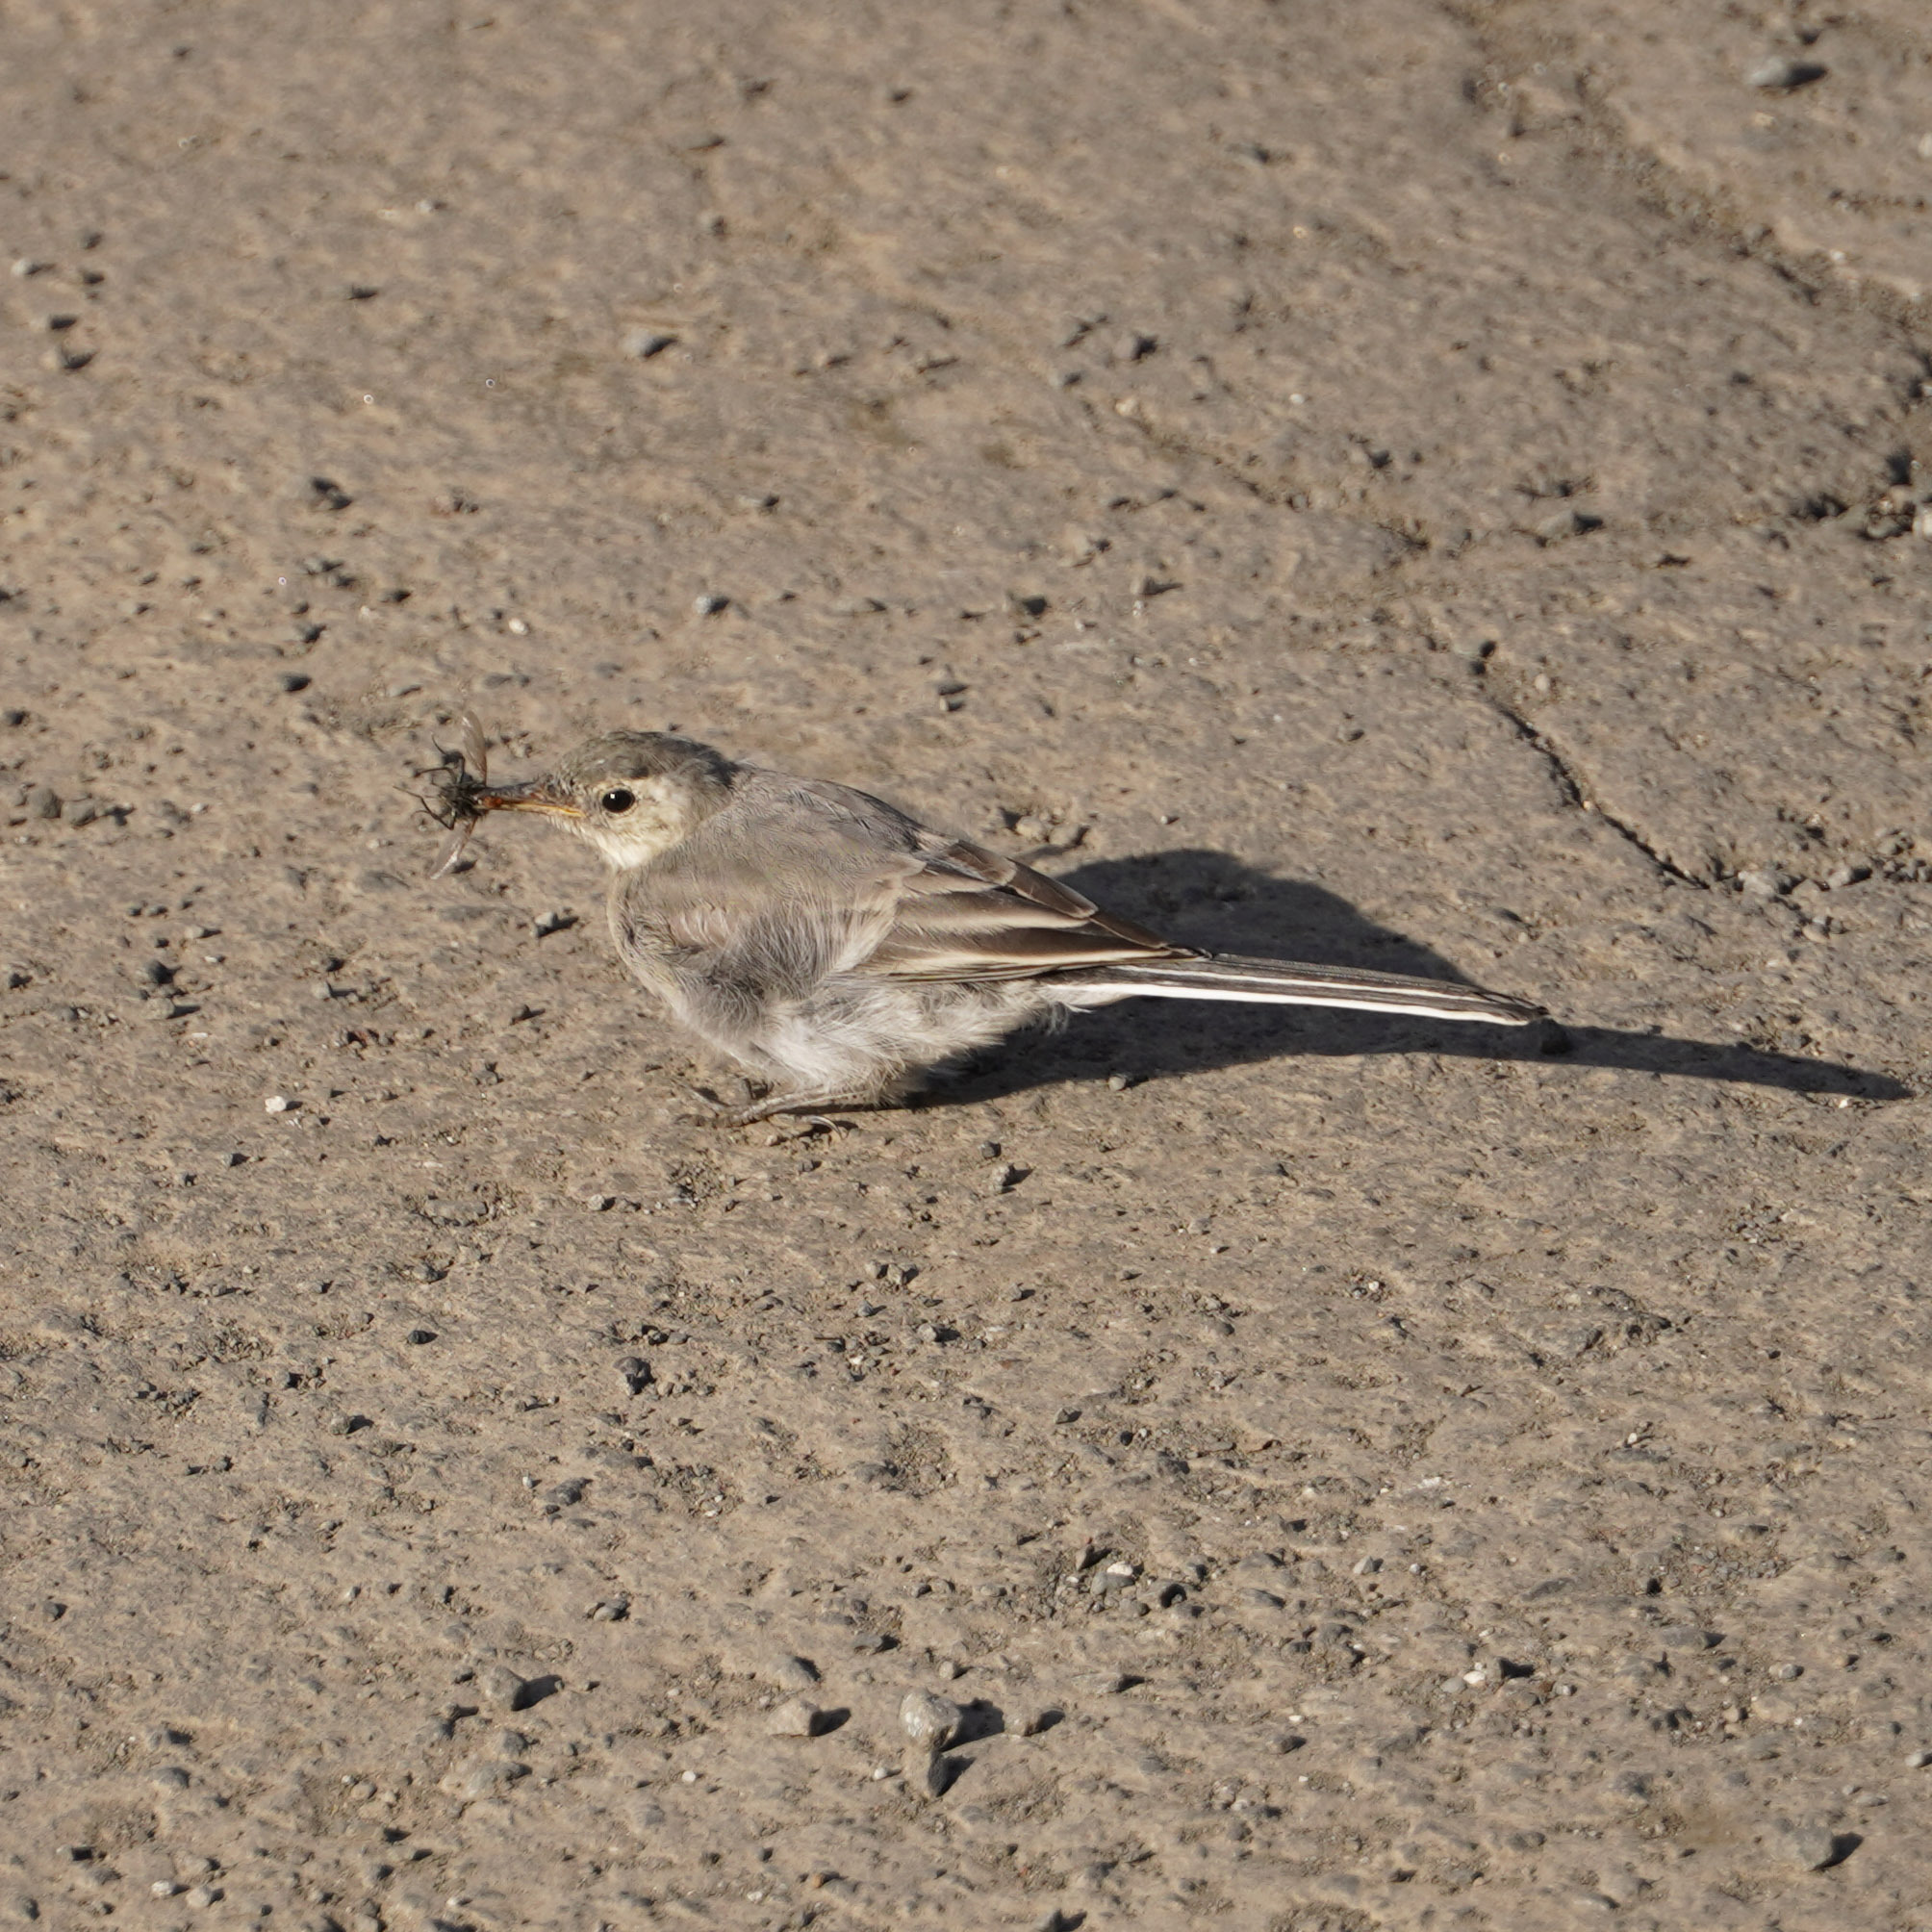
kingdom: Animalia
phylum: Chordata
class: Aves
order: Passeriformes
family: Motacillidae
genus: Motacilla
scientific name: Motacilla alba
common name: White wagtail
